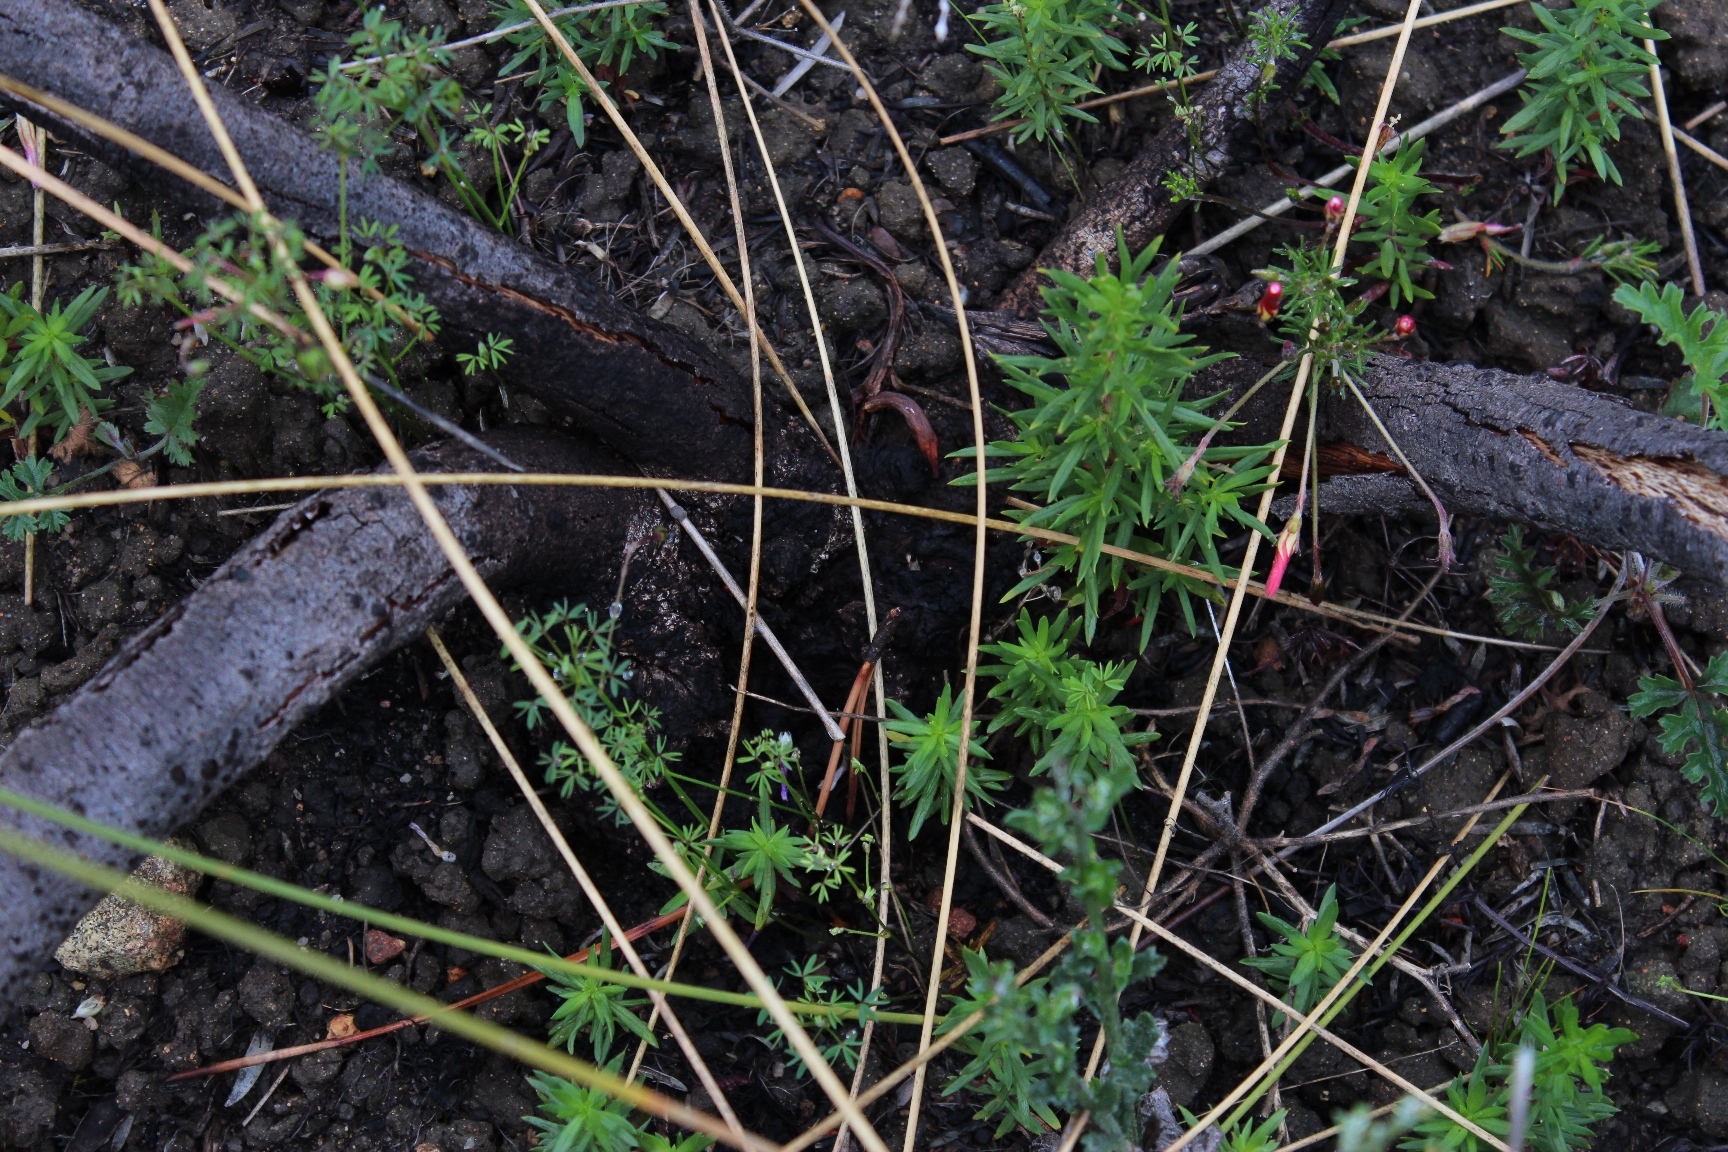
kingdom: Plantae
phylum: Tracheophyta
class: Magnoliopsida
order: Proteales
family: Proteaceae
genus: Leucadendron
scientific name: Leucadendron lanigerum
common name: Shale conebush
